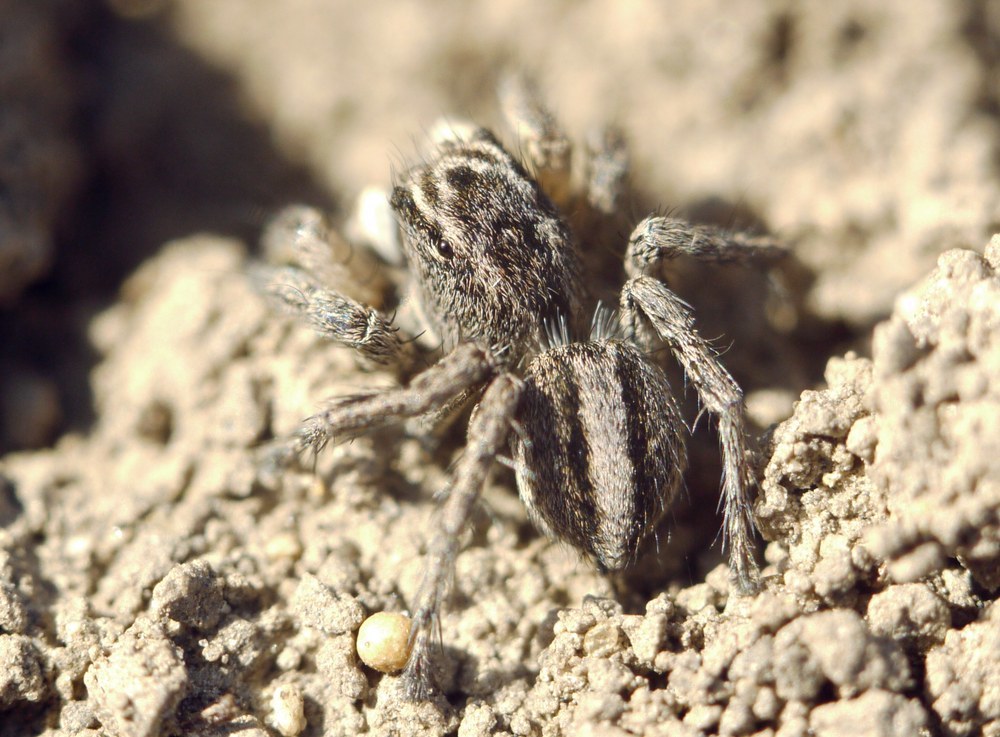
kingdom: Animalia
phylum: Arthropoda
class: Arachnida
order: Araneae
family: Salticidae
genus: Aelurillus
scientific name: Aelurillus v-insignitus
